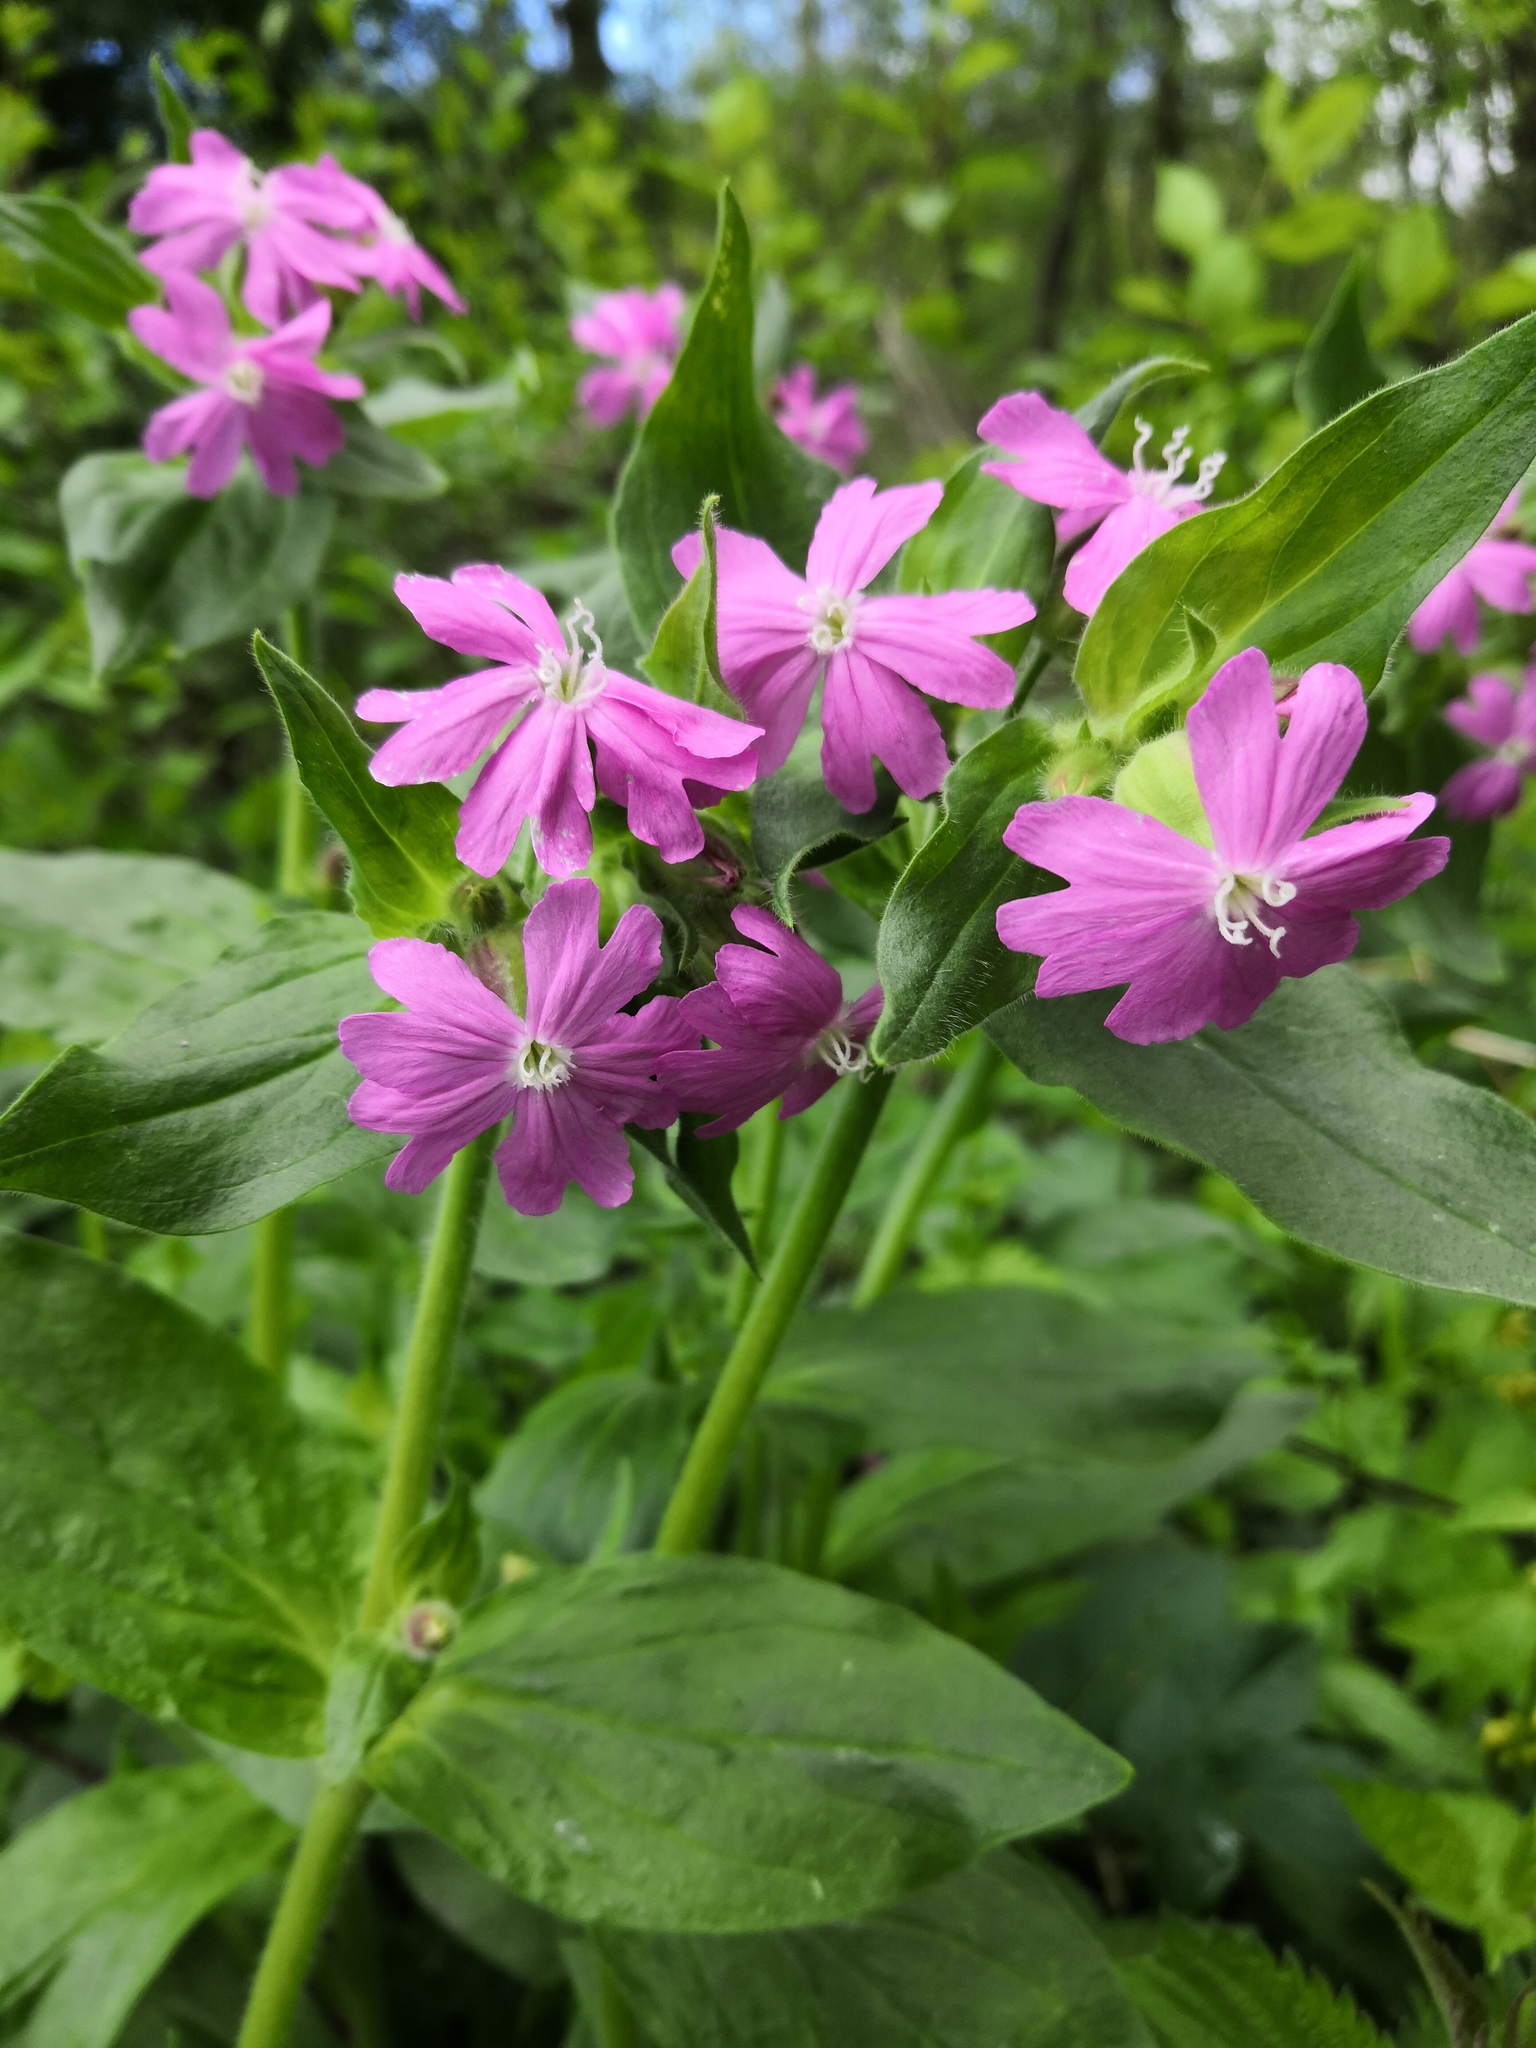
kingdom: Plantae
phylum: Tracheophyta
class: Magnoliopsida
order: Caryophyllales
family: Caryophyllaceae
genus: Silene
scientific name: Silene dioica
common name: Red campion
